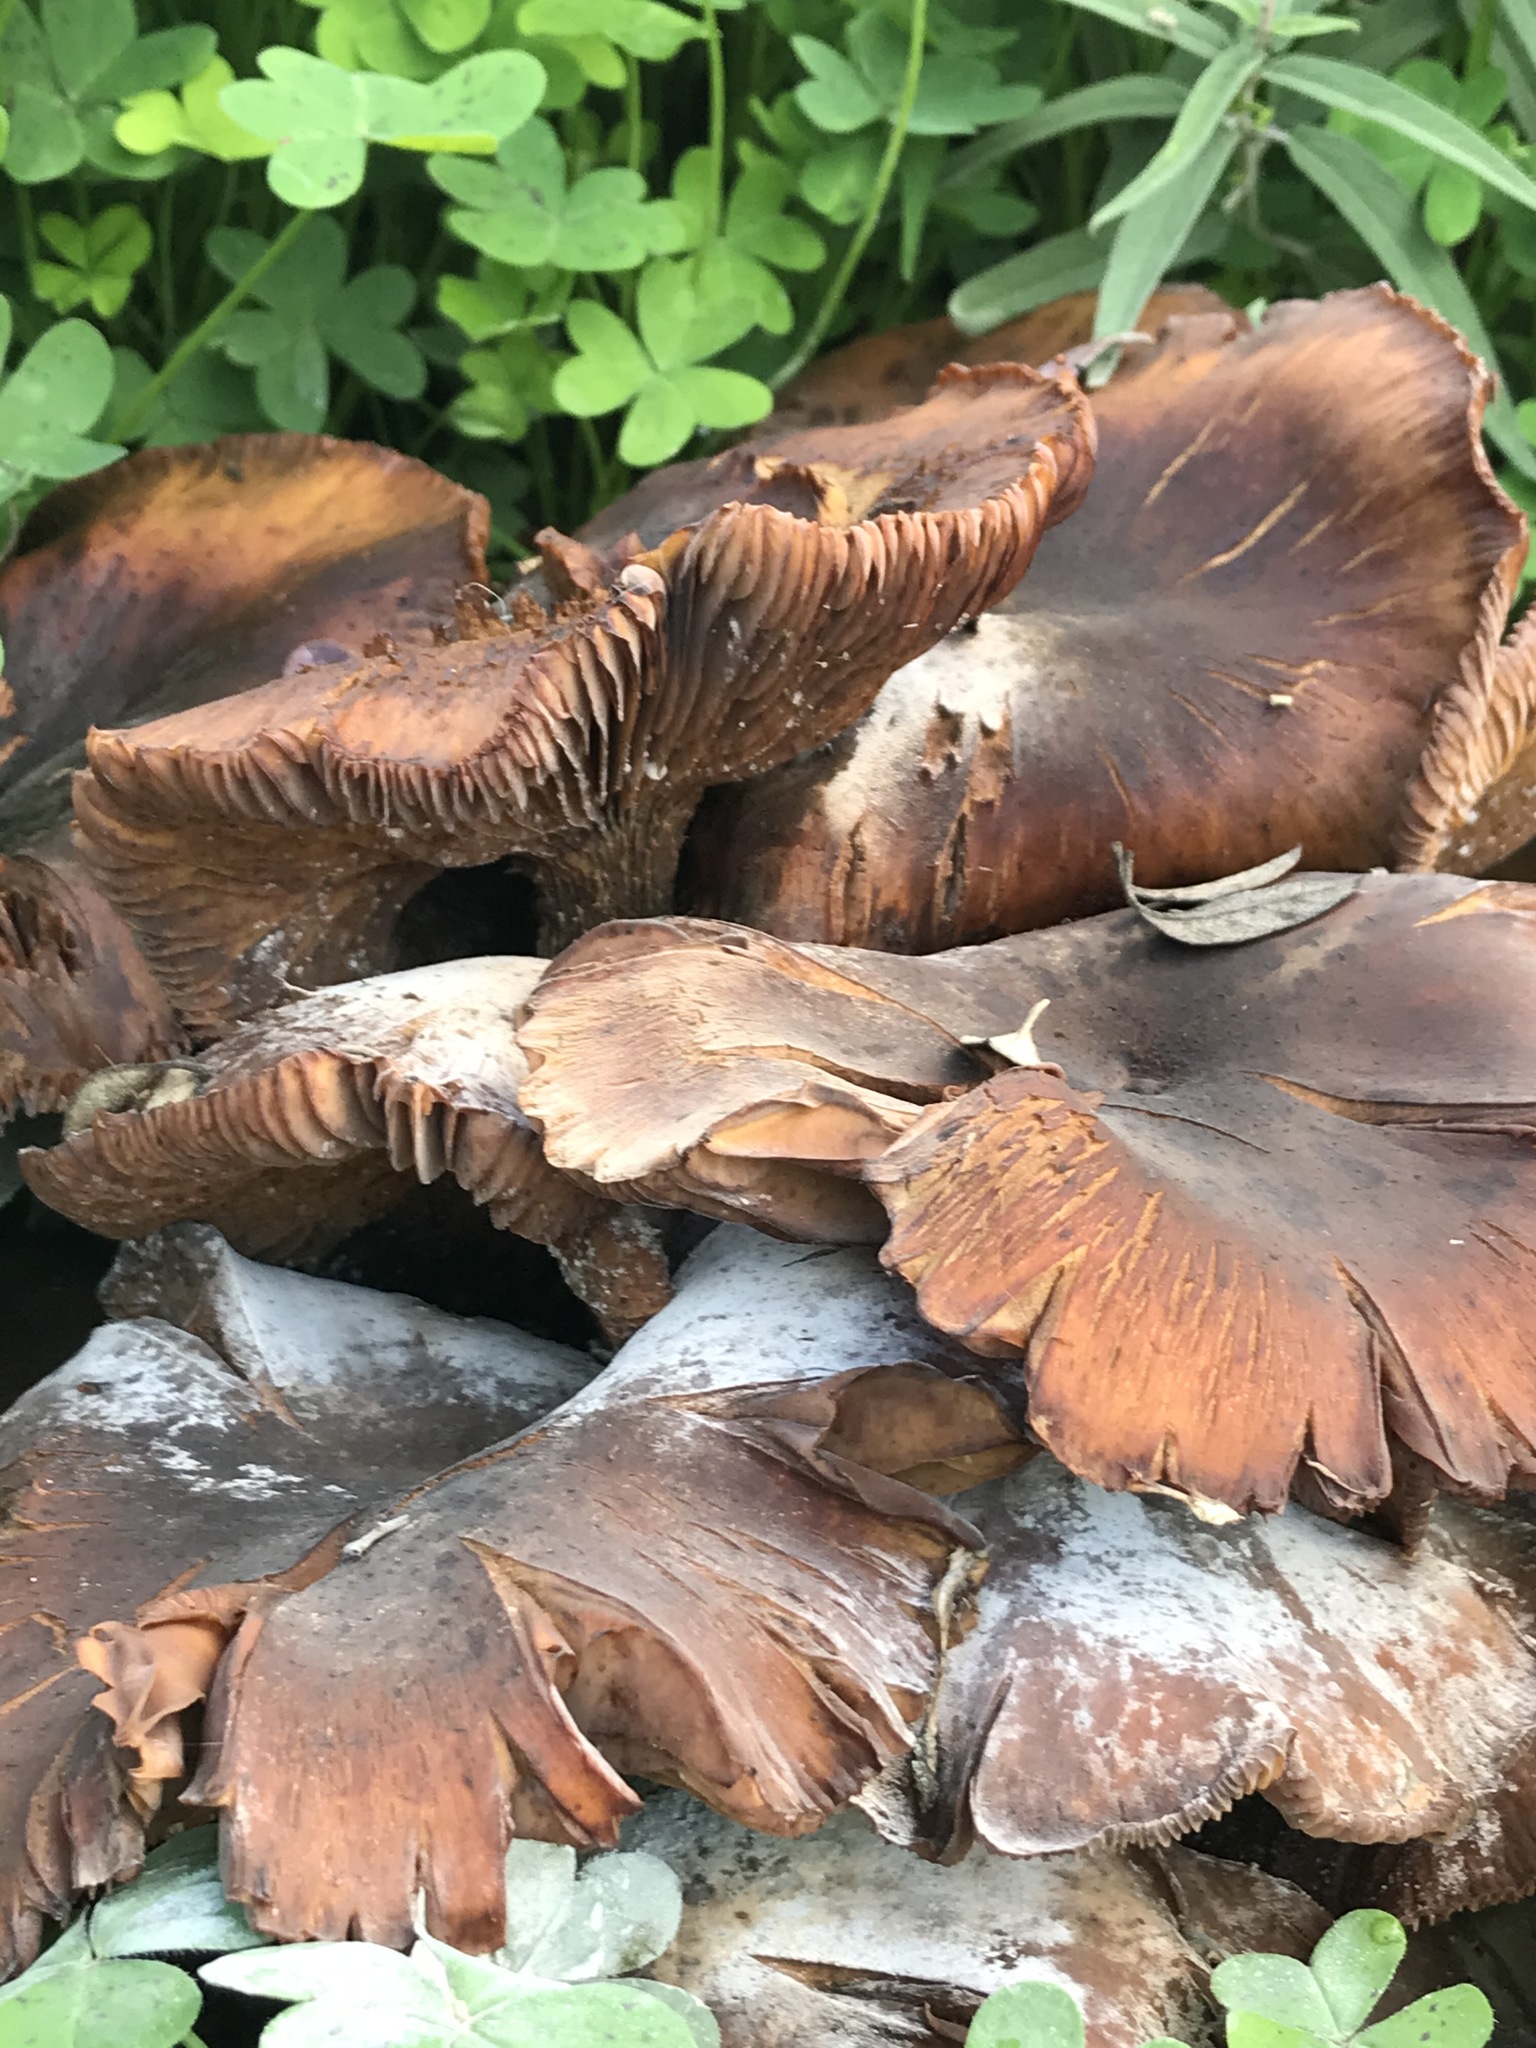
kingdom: Fungi
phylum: Basidiomycota
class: Agaricomycetes
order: Agaricales
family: Physalacriaceae
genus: Armillaria
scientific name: Armillaria mellea
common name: Honey fungus
